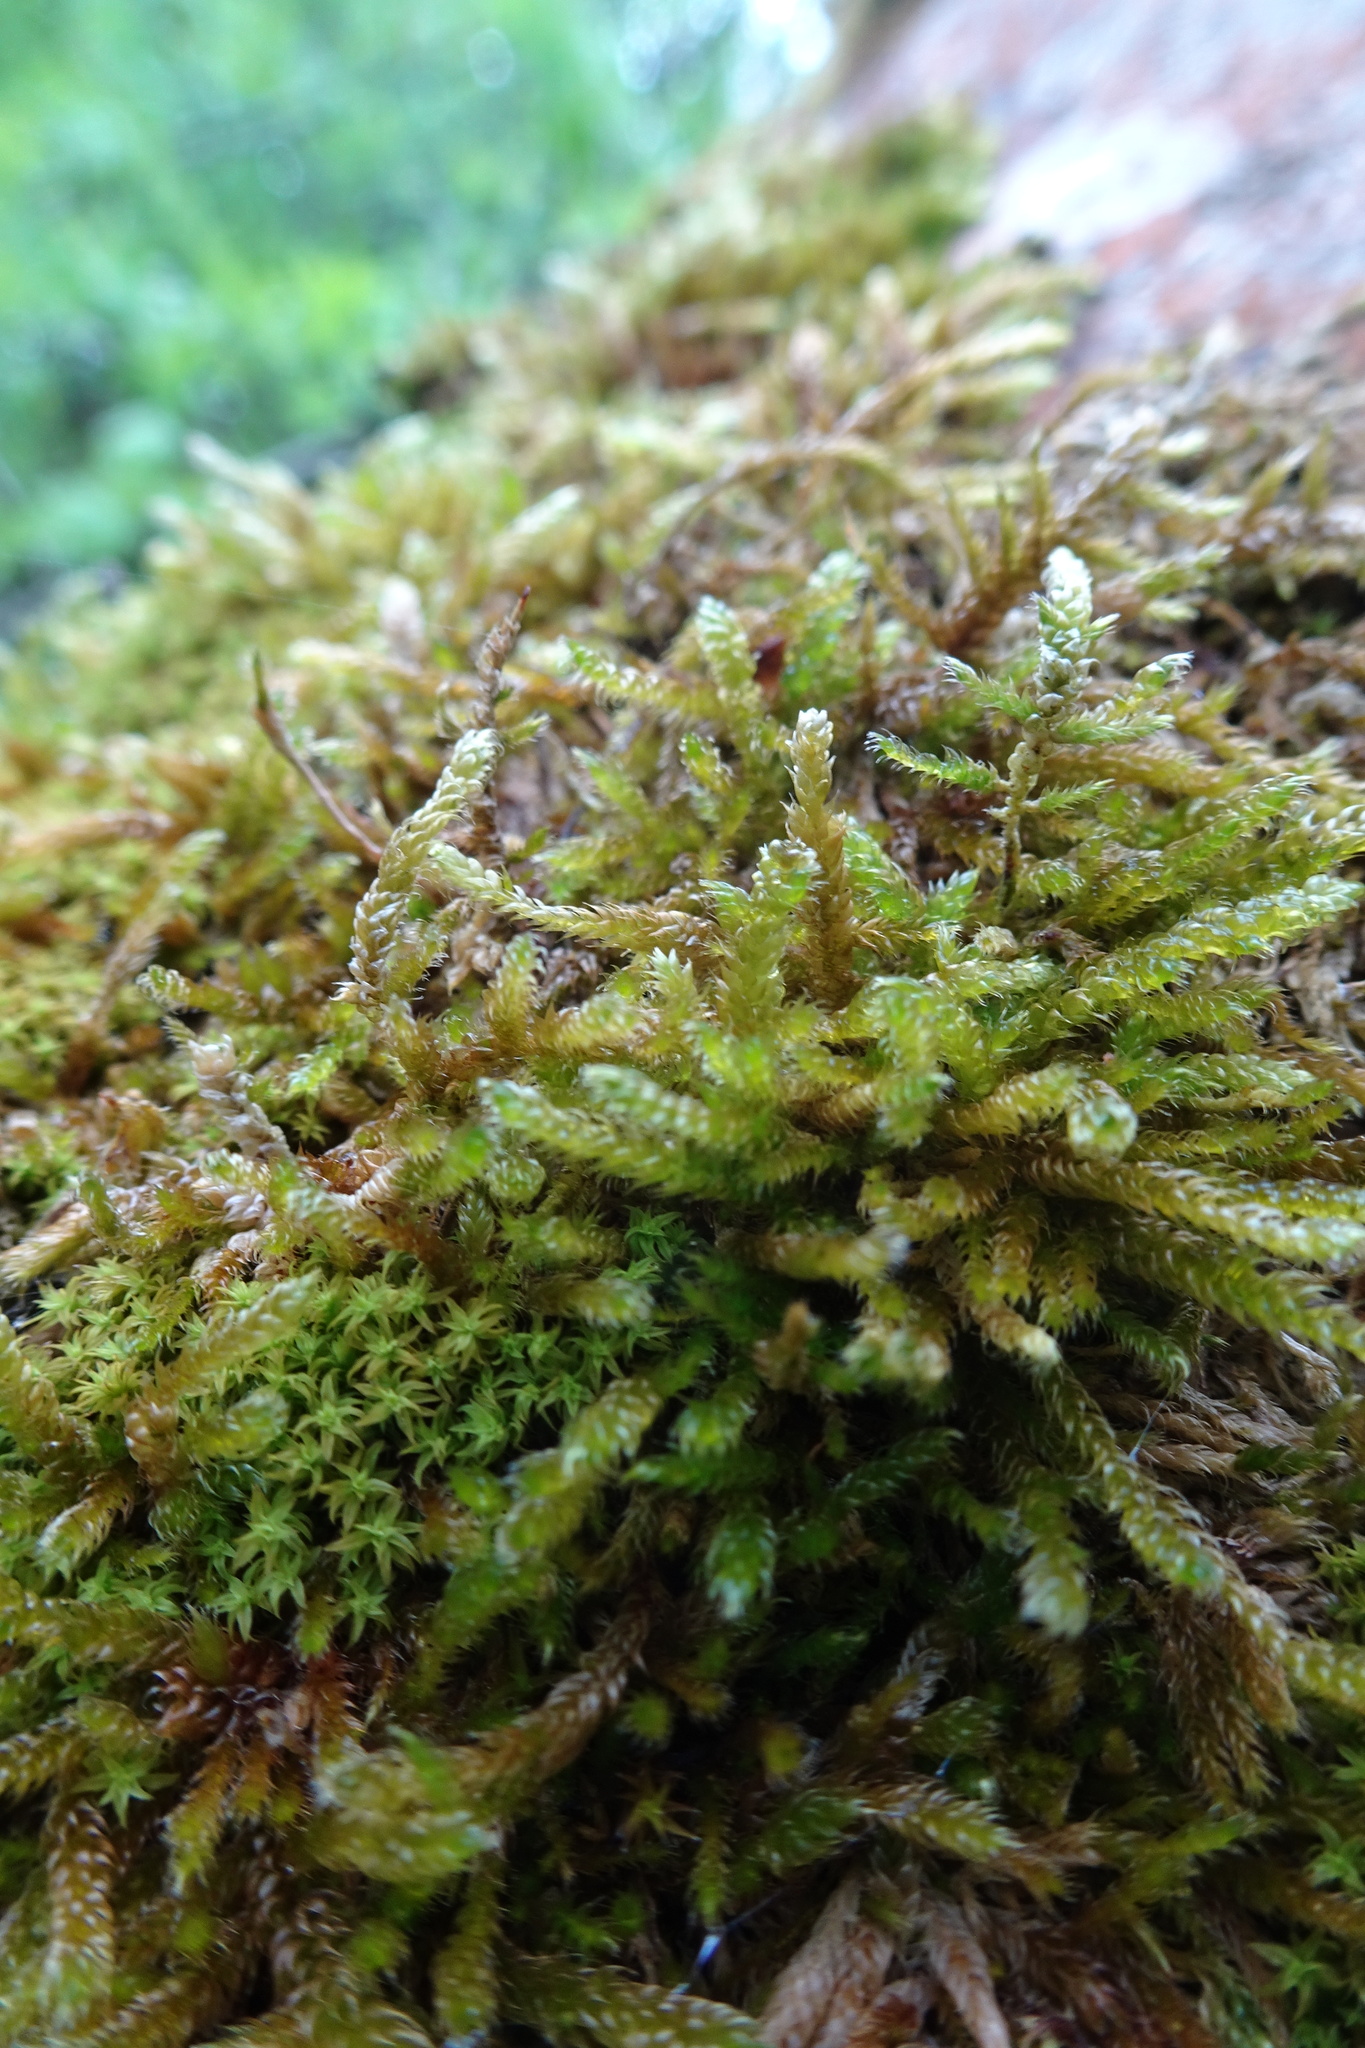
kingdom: Plantae
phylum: Bryophyta
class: Bryopsida
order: Hypnales
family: Hypnaceae
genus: Hypnum
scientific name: Hypnum cupressiforme
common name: Cypress-leaved plait-moss
